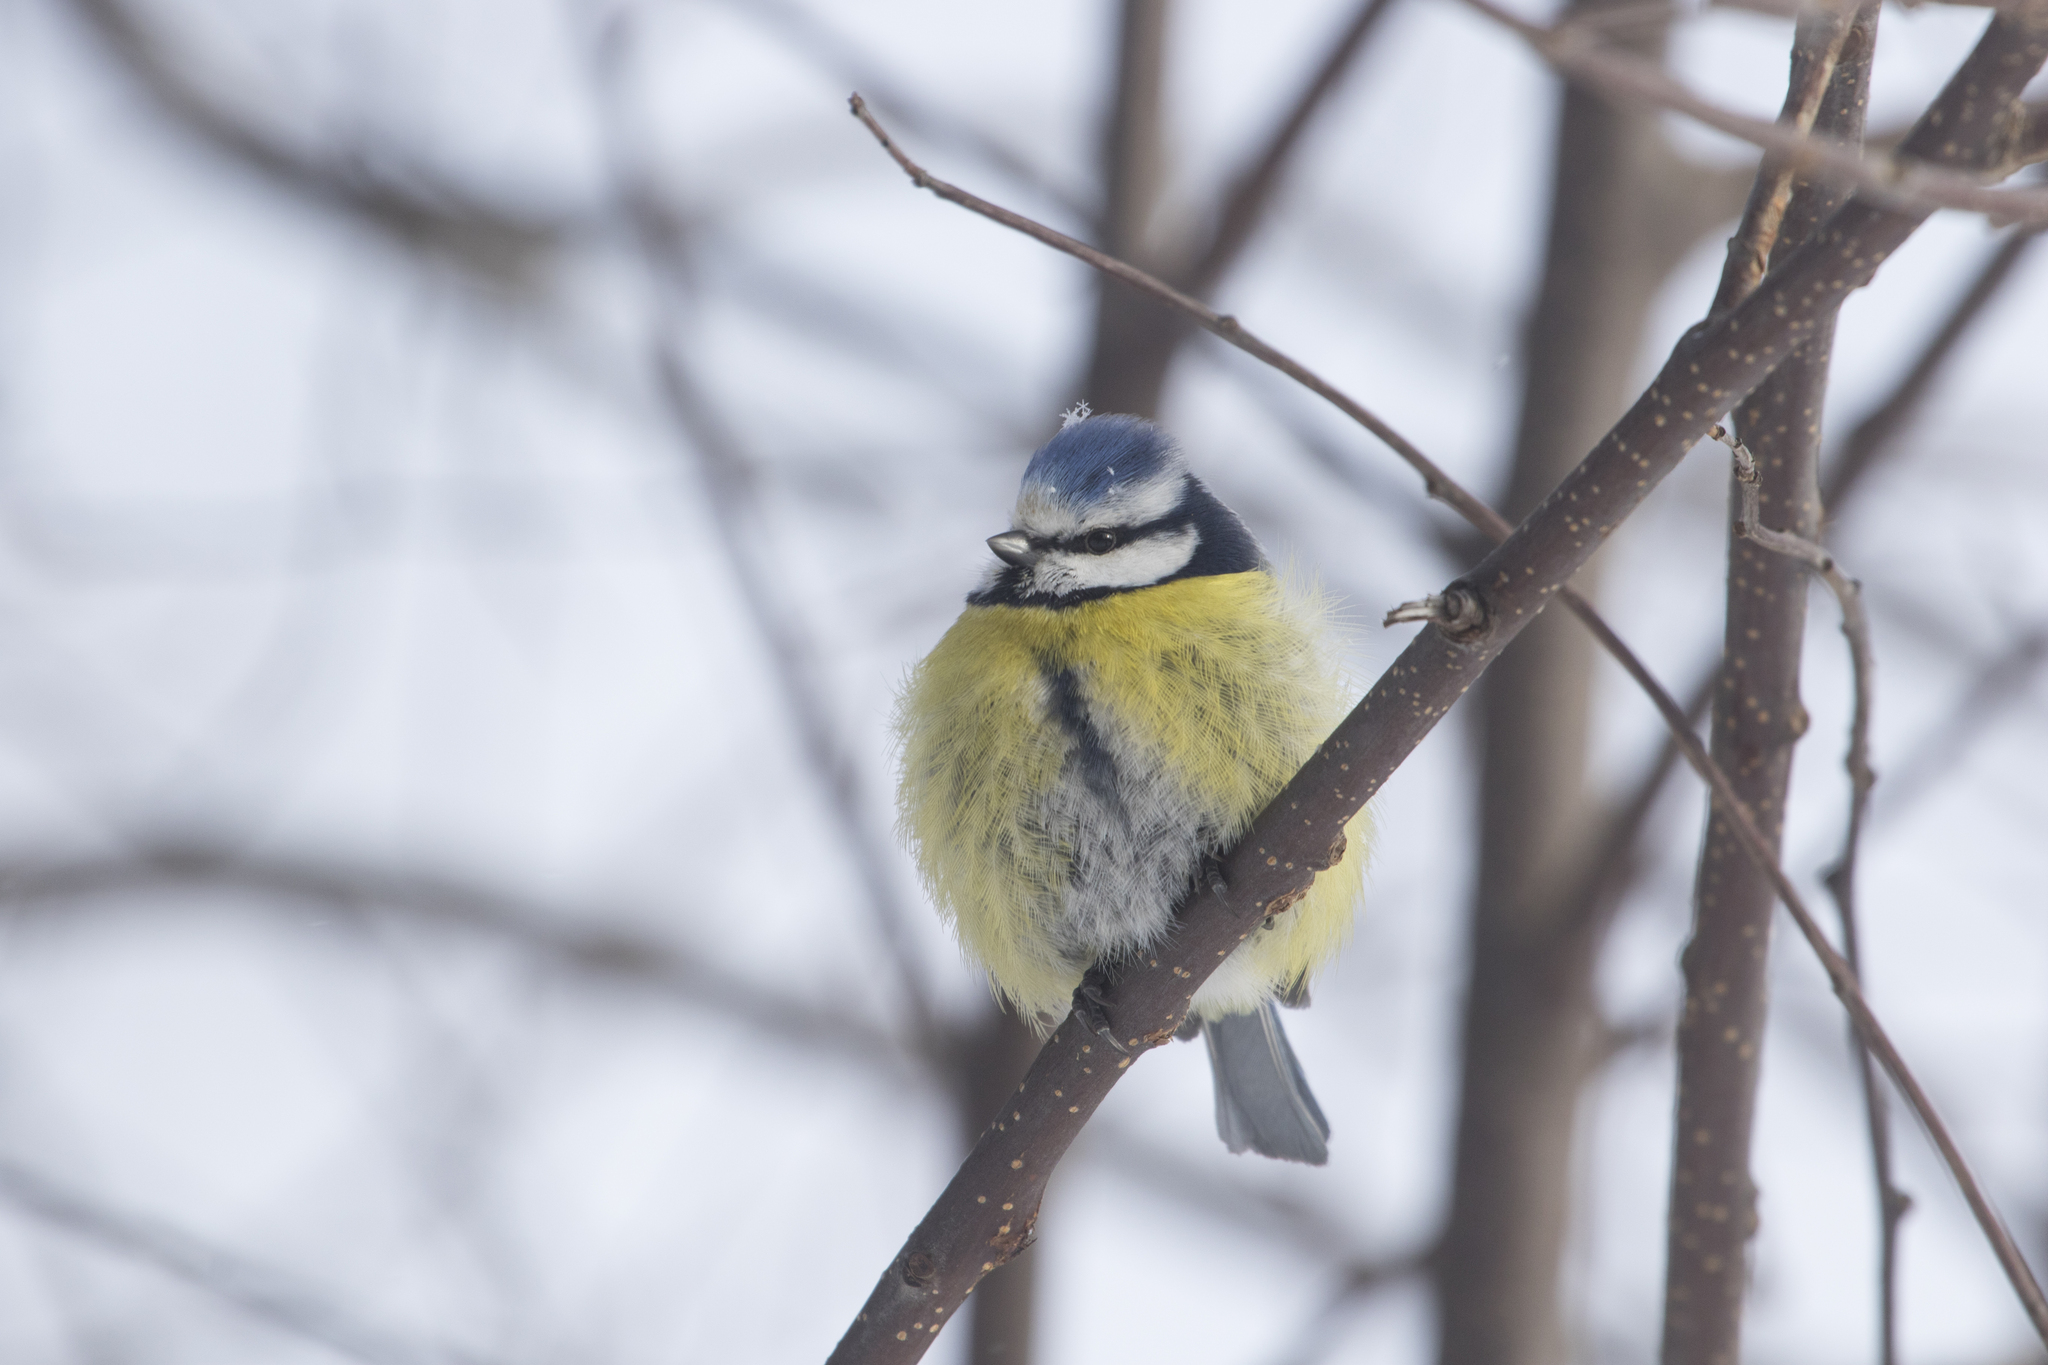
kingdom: Animalia
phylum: Chordata
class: Aves
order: Passeriformes
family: Paridae
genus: Cyanistes
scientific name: Cyanistes caeruleus
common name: Eurasian blue tit
